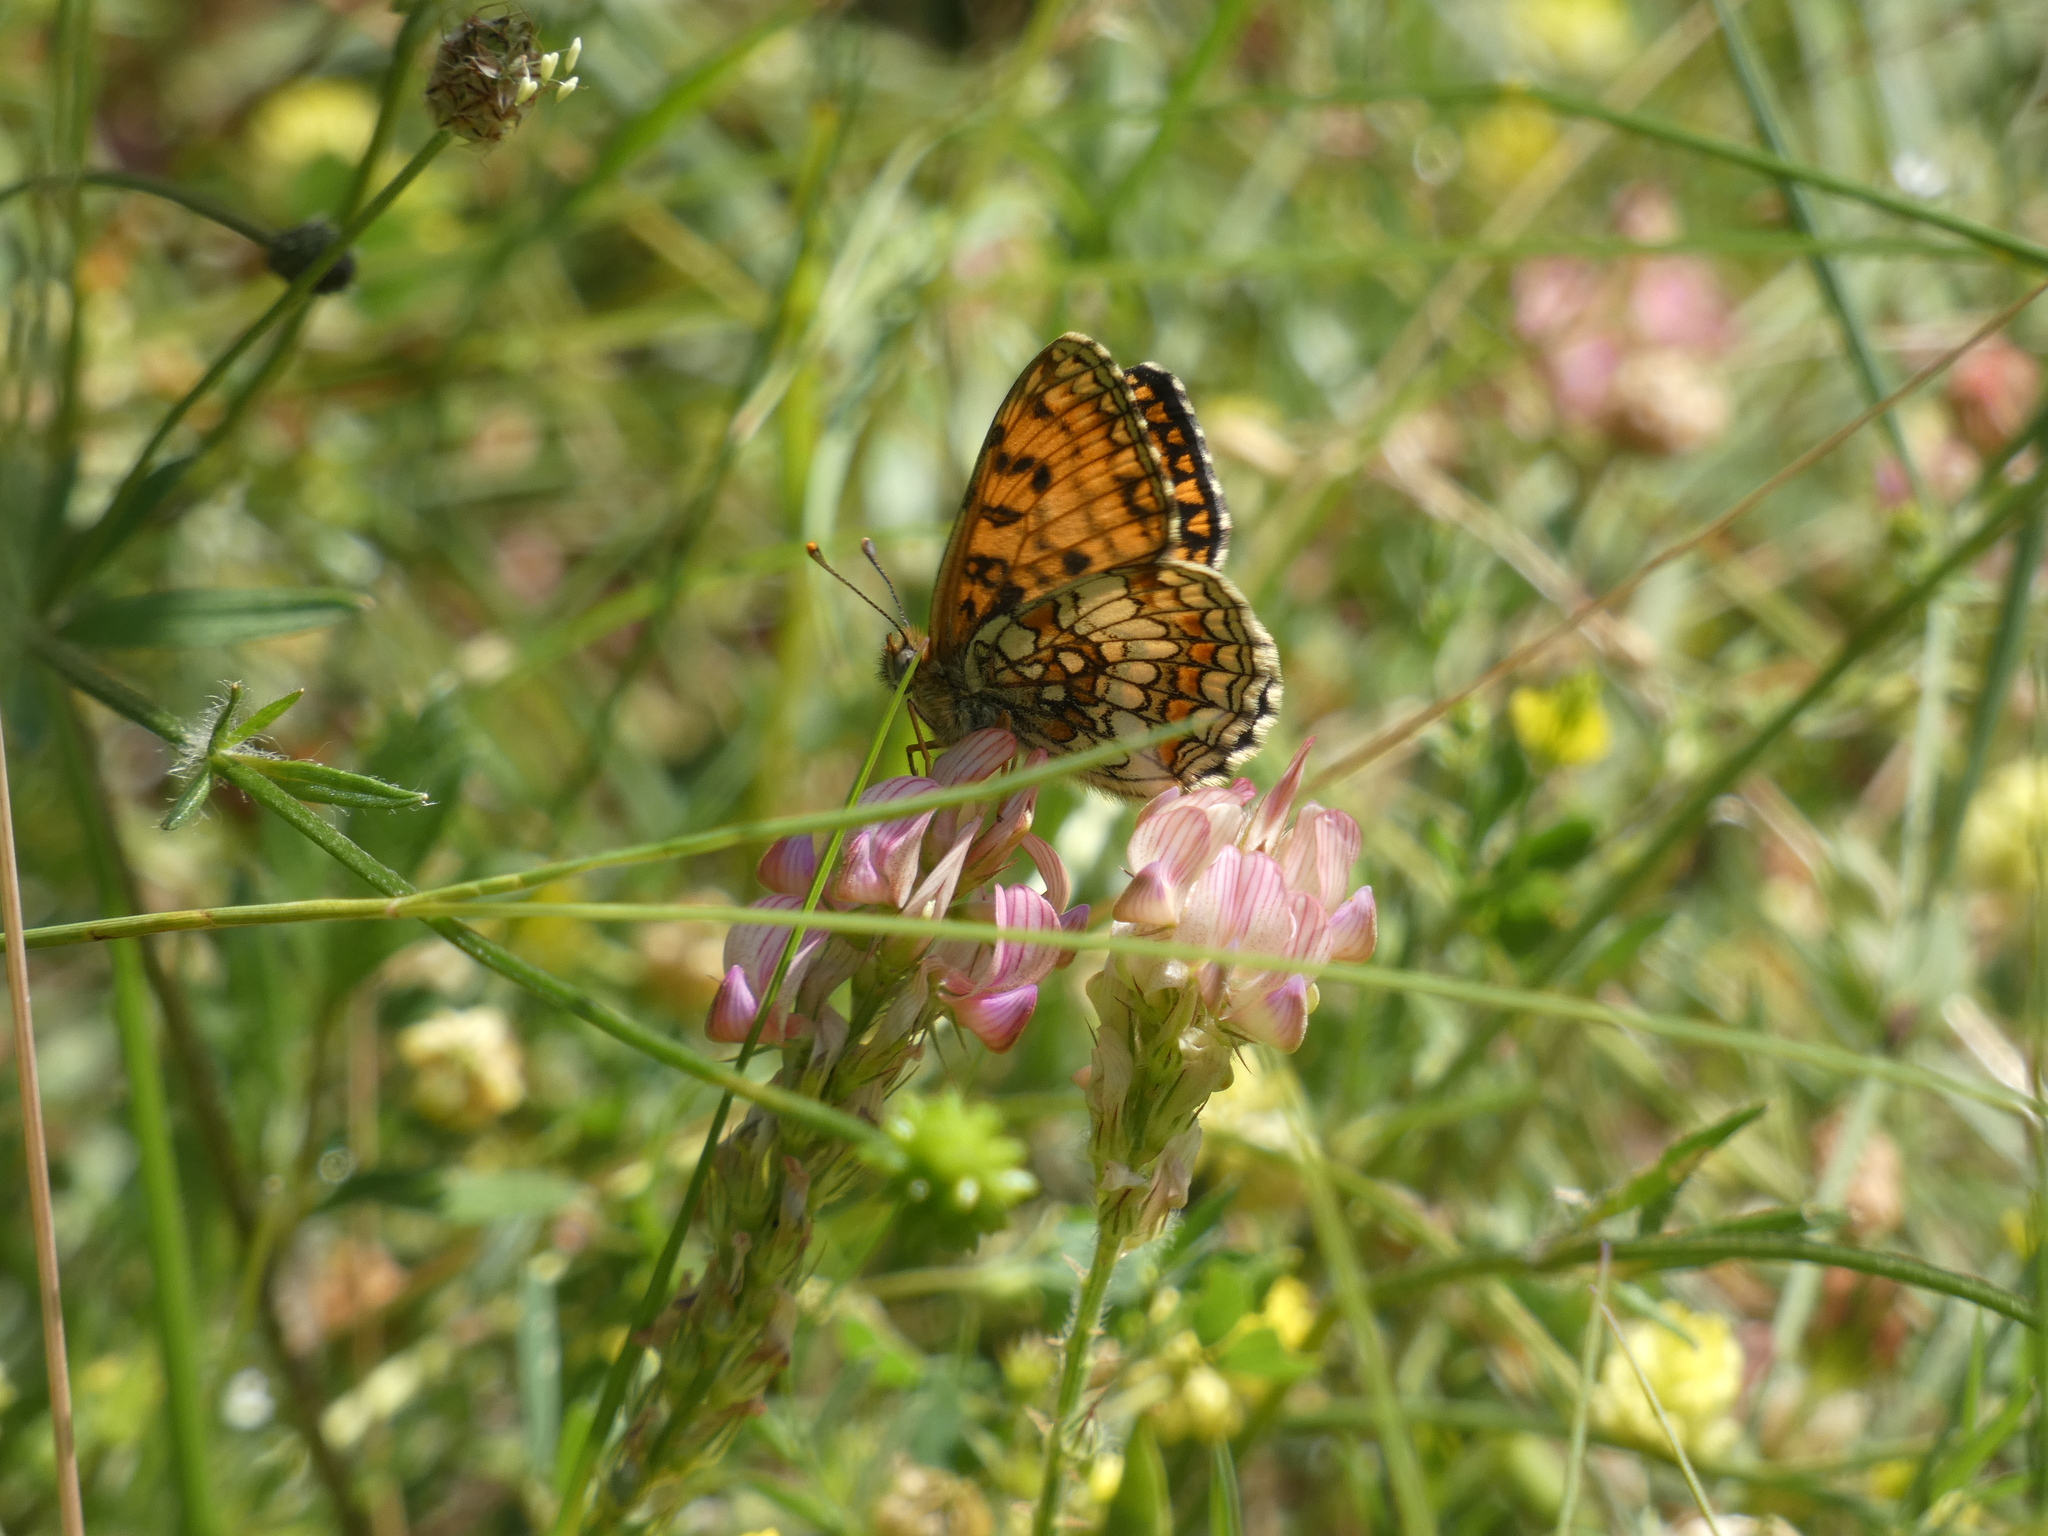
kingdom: Animalia
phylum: Arthropoda
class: Insecta
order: Lepidoptera
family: Nymphalidae
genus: Mellicta
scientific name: Mellicta athalia
